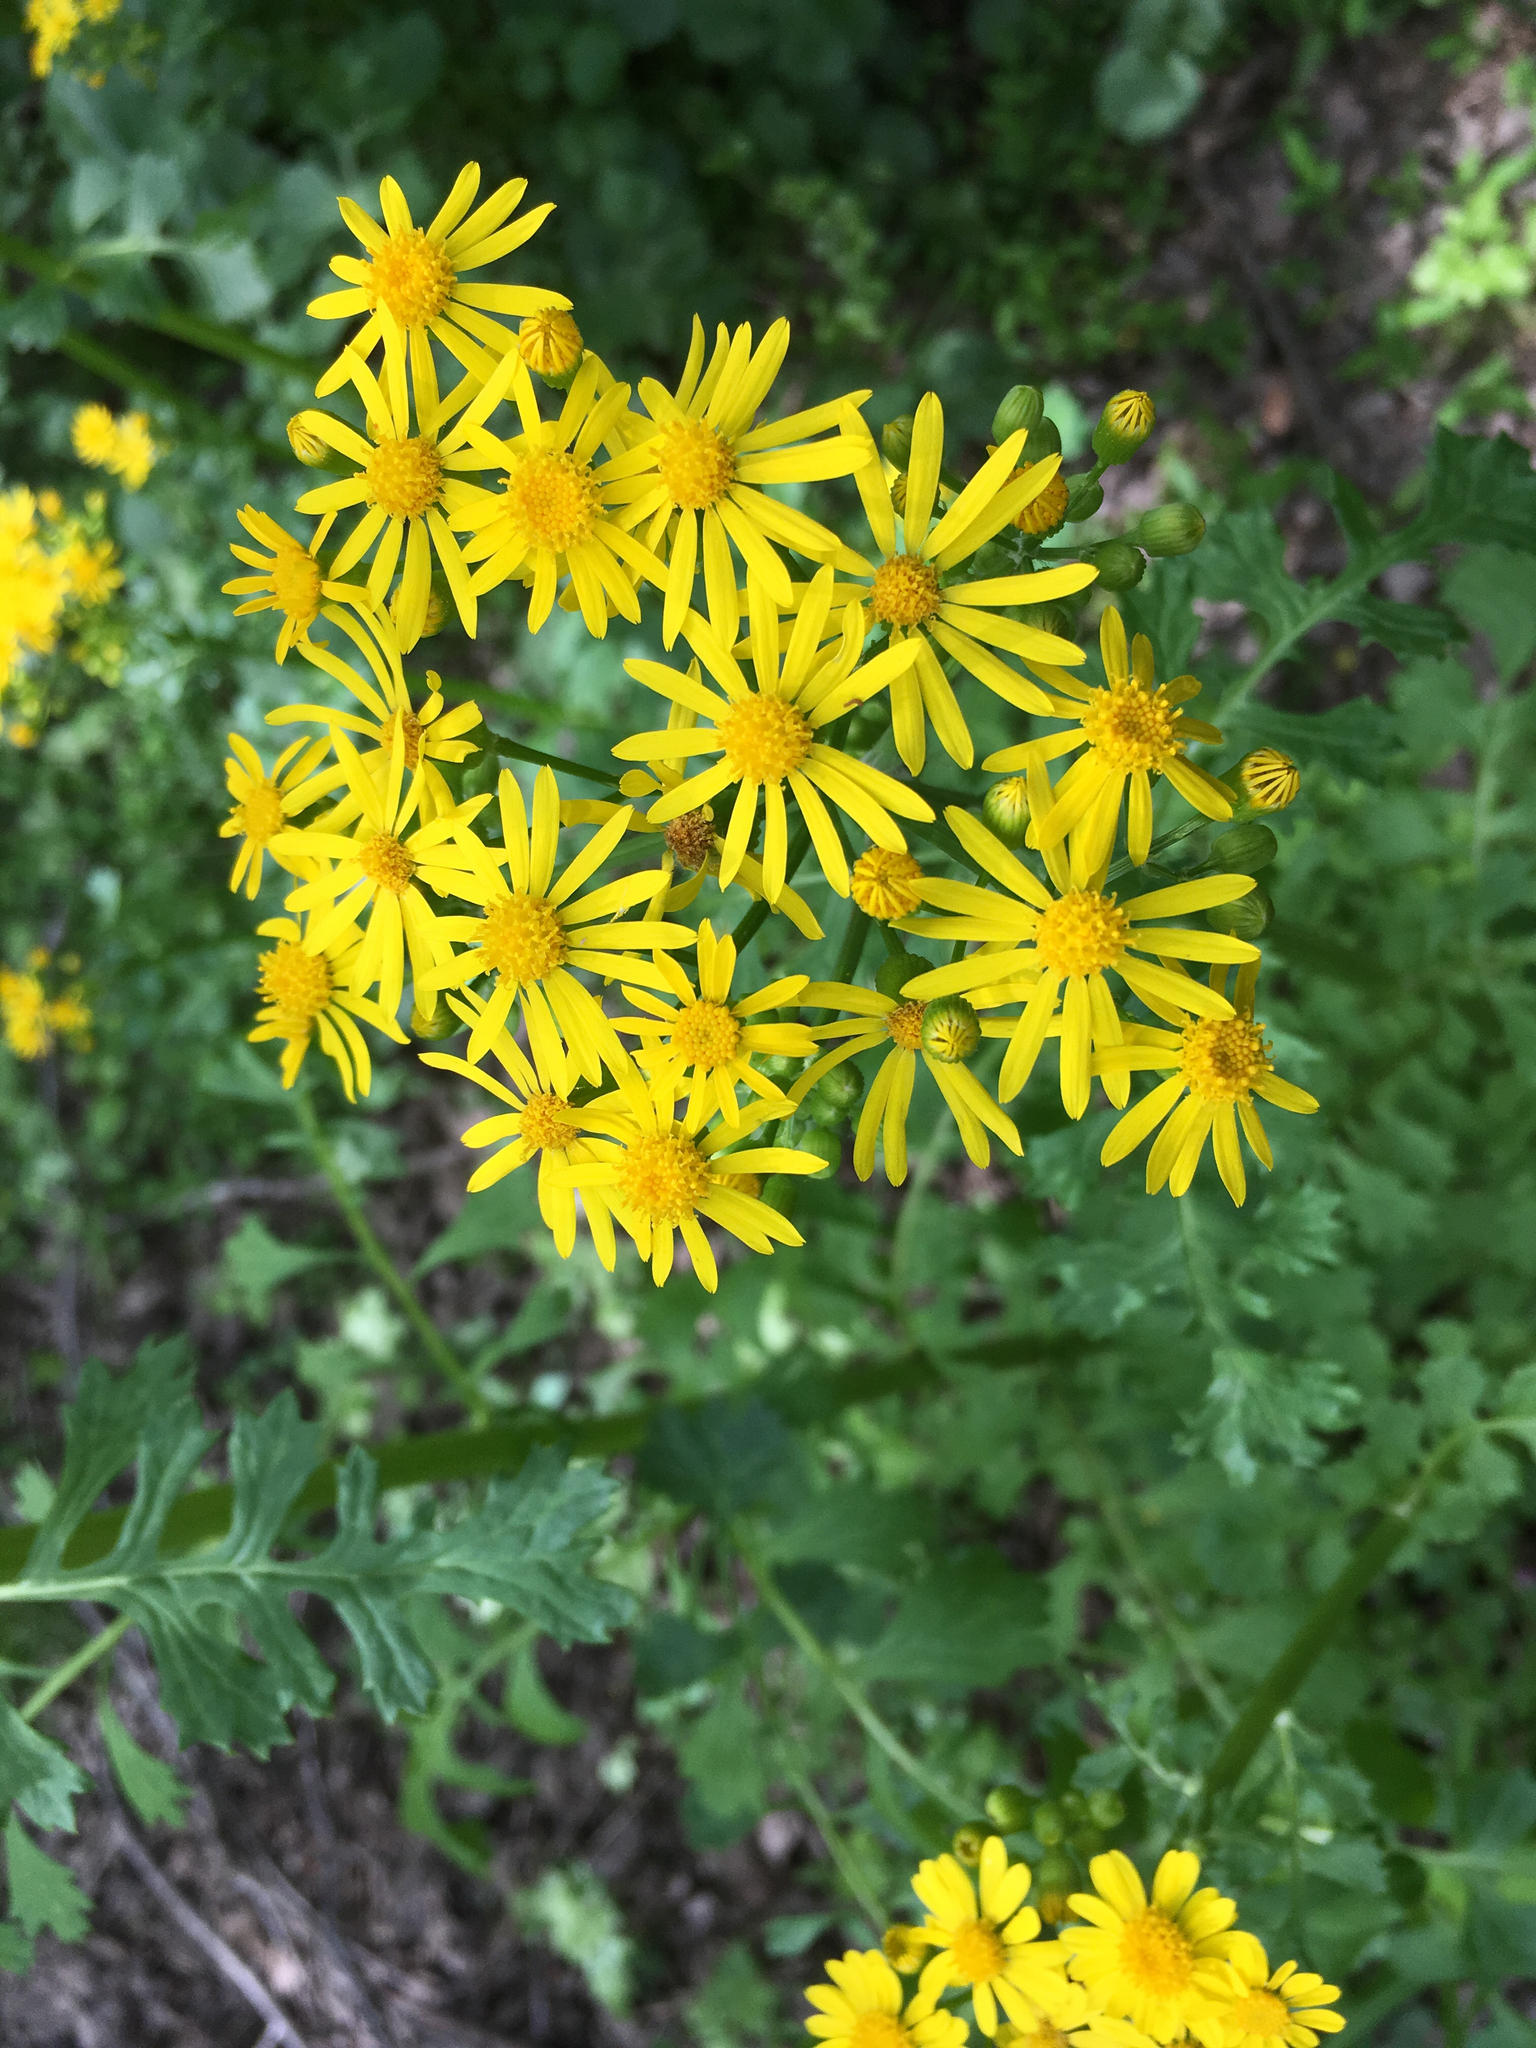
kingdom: Plantae
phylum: Tracheophyta
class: Magnoliopsida
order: Asterales
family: Asteraceae
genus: Packera
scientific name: Packera glabella
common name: Butterweed
